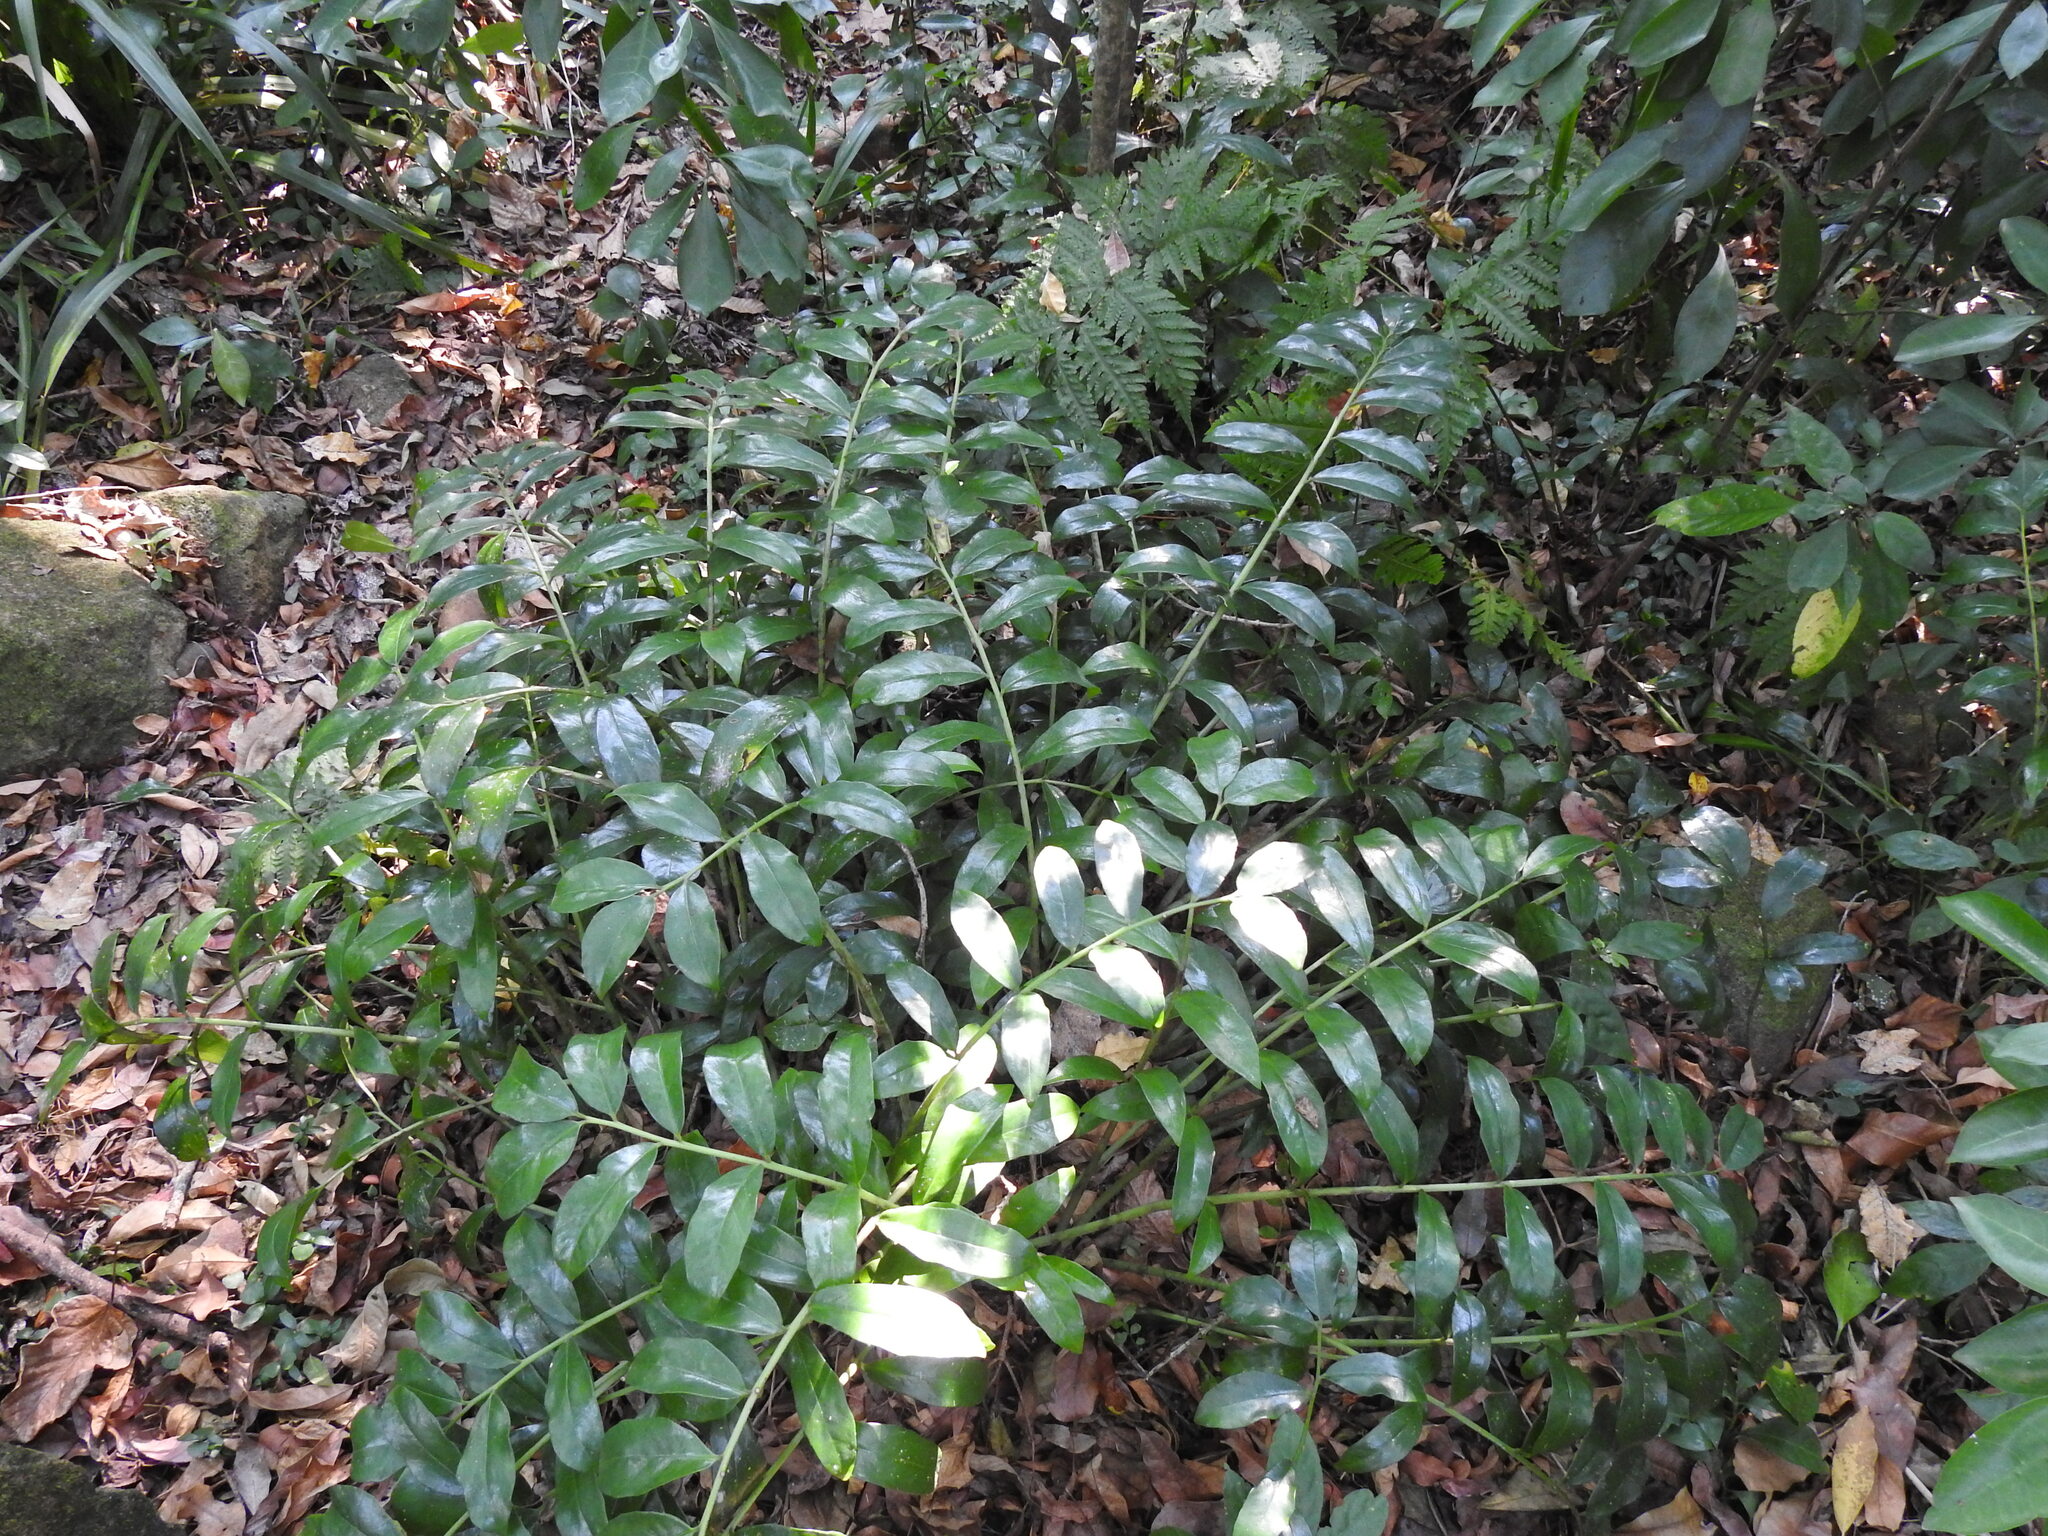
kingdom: Plantae
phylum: Tracheophyta
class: Liliopsida
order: Alismatales
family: Araceae
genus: Zamioculcas
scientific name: Zamioculcas zamiifolia
